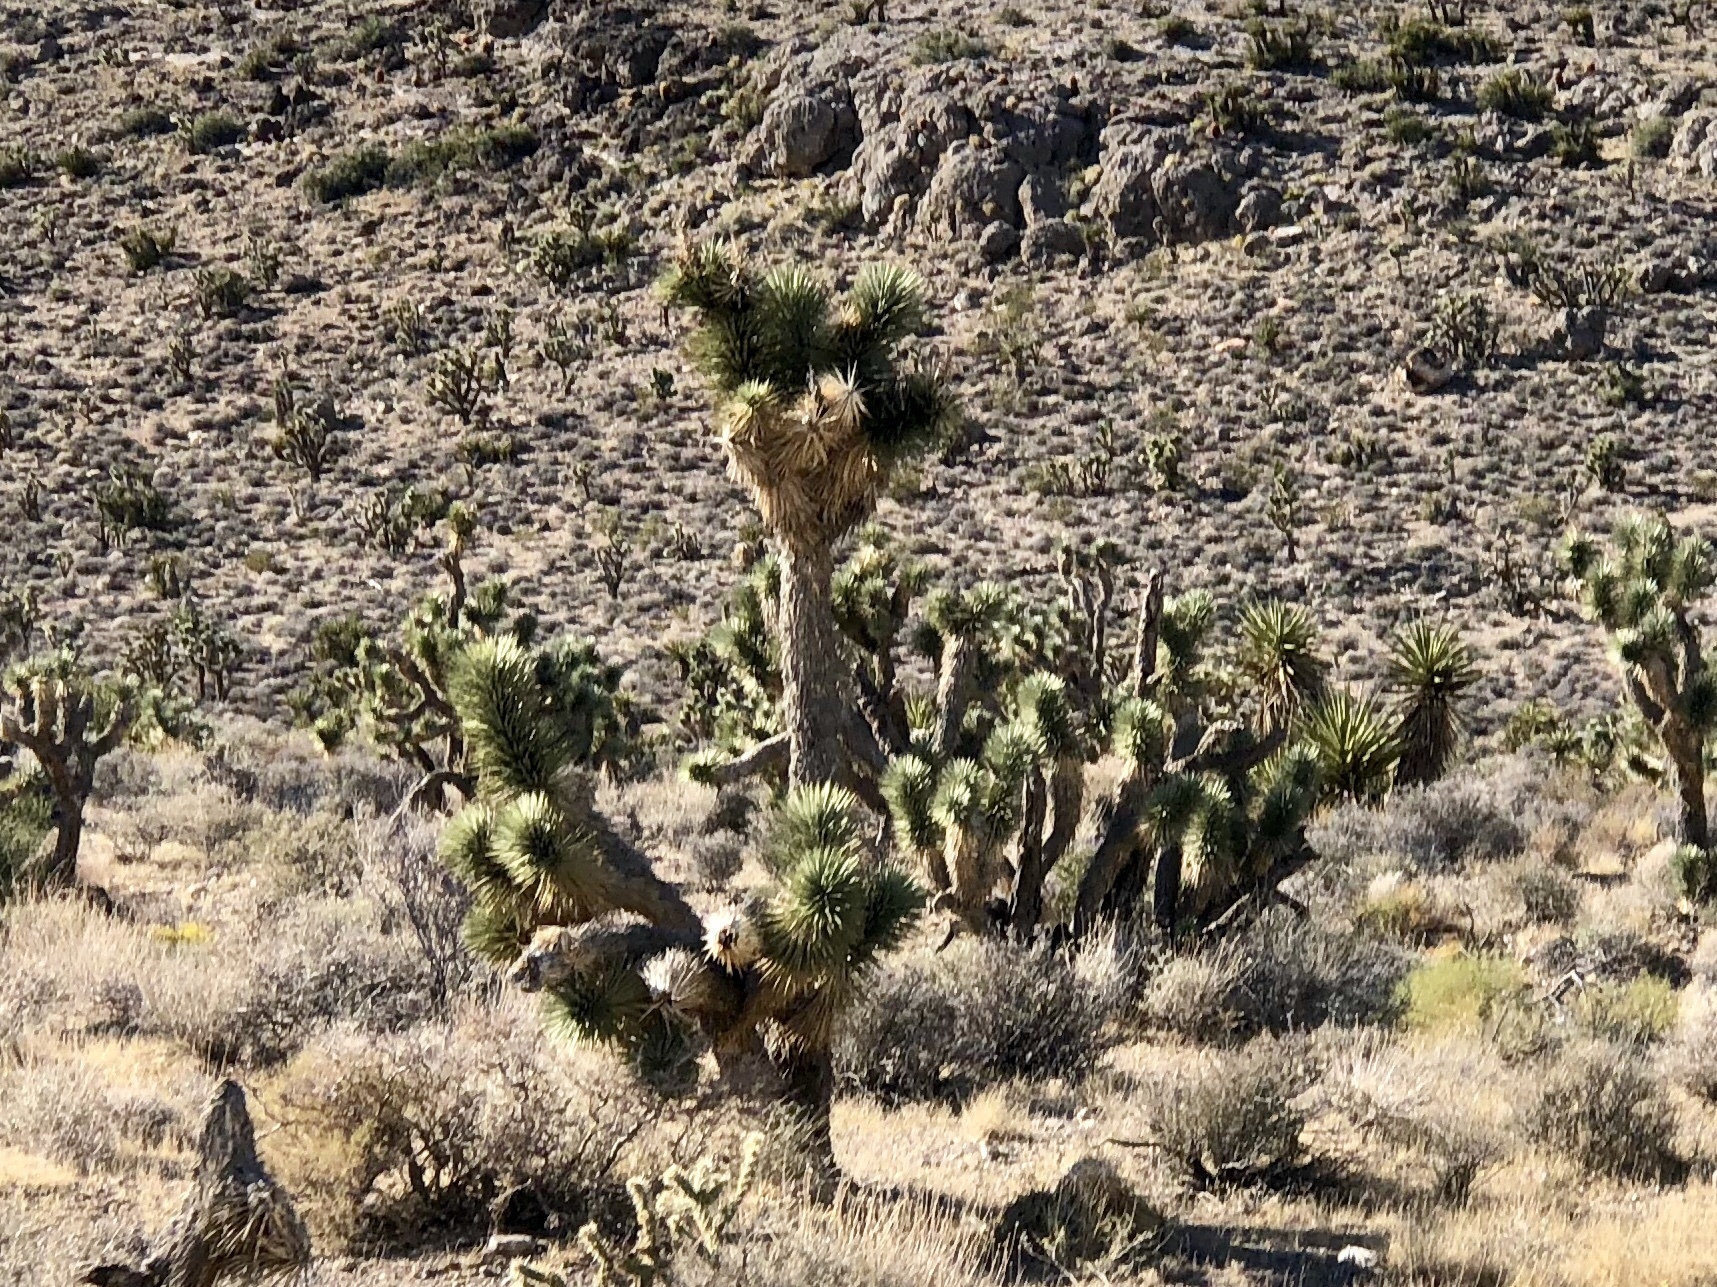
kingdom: Plantae
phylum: Tracheophyta
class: Liliopsida
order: Asparagales
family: Asparagaceae
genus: Yucca
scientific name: Yucca brevifolia
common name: Joshua tree
